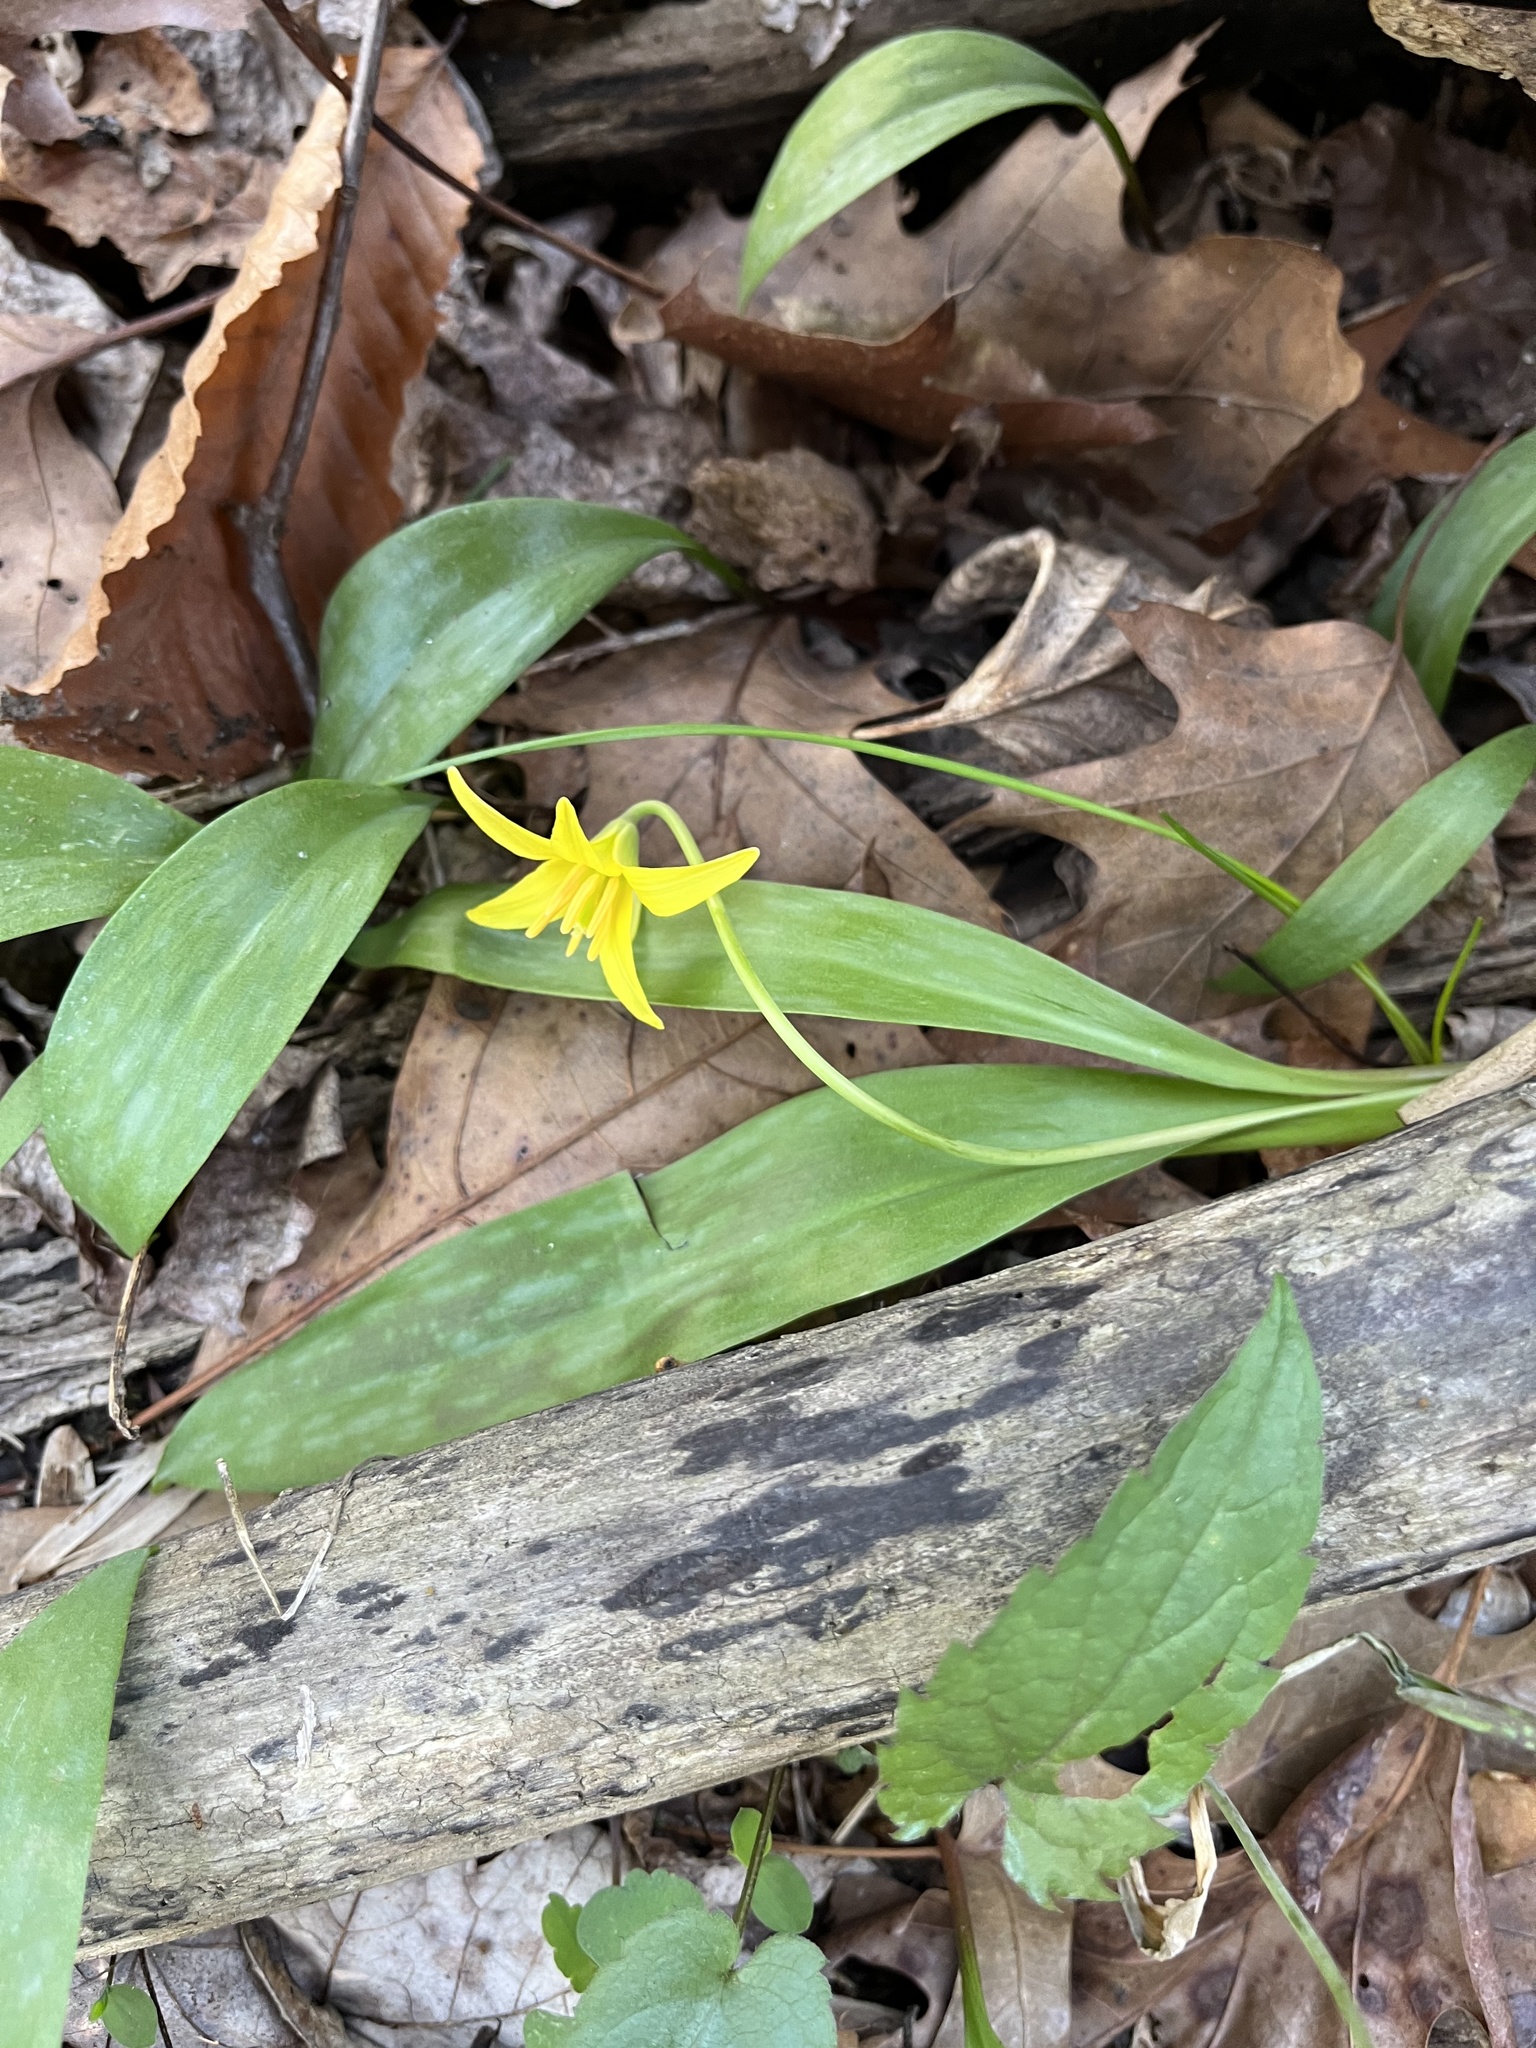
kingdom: Plantae
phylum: Tracheophyta
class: Liliopsida
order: Liliales
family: Liliaceae
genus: Erythronium
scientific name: Erythronium americanum
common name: Yellow adder's-tongue
